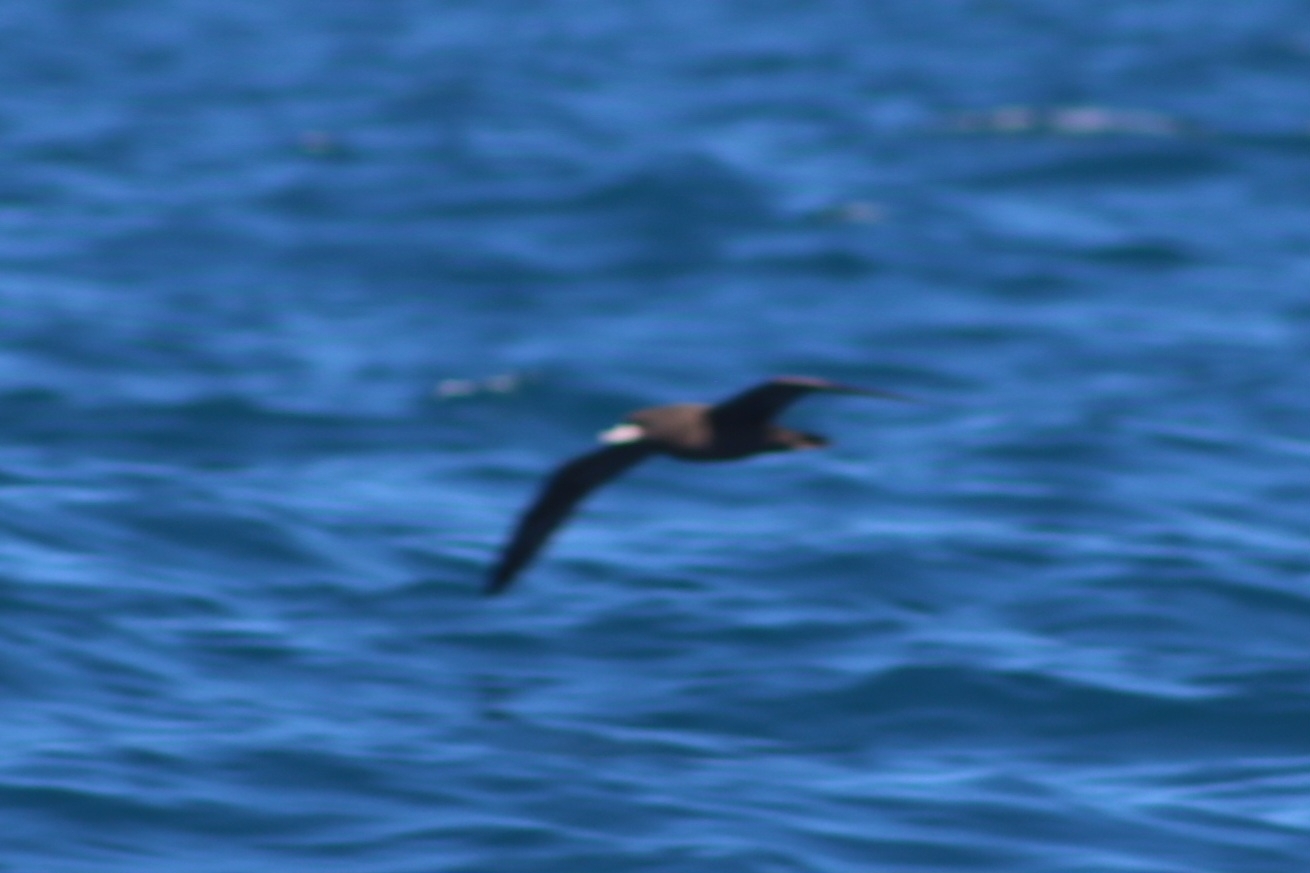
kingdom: Animalia
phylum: Chordata
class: Aves
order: Procellariiformes
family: Procellariidae
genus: Puffinus
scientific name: Puffinus carneipes
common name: Flesh-footed shearwater
